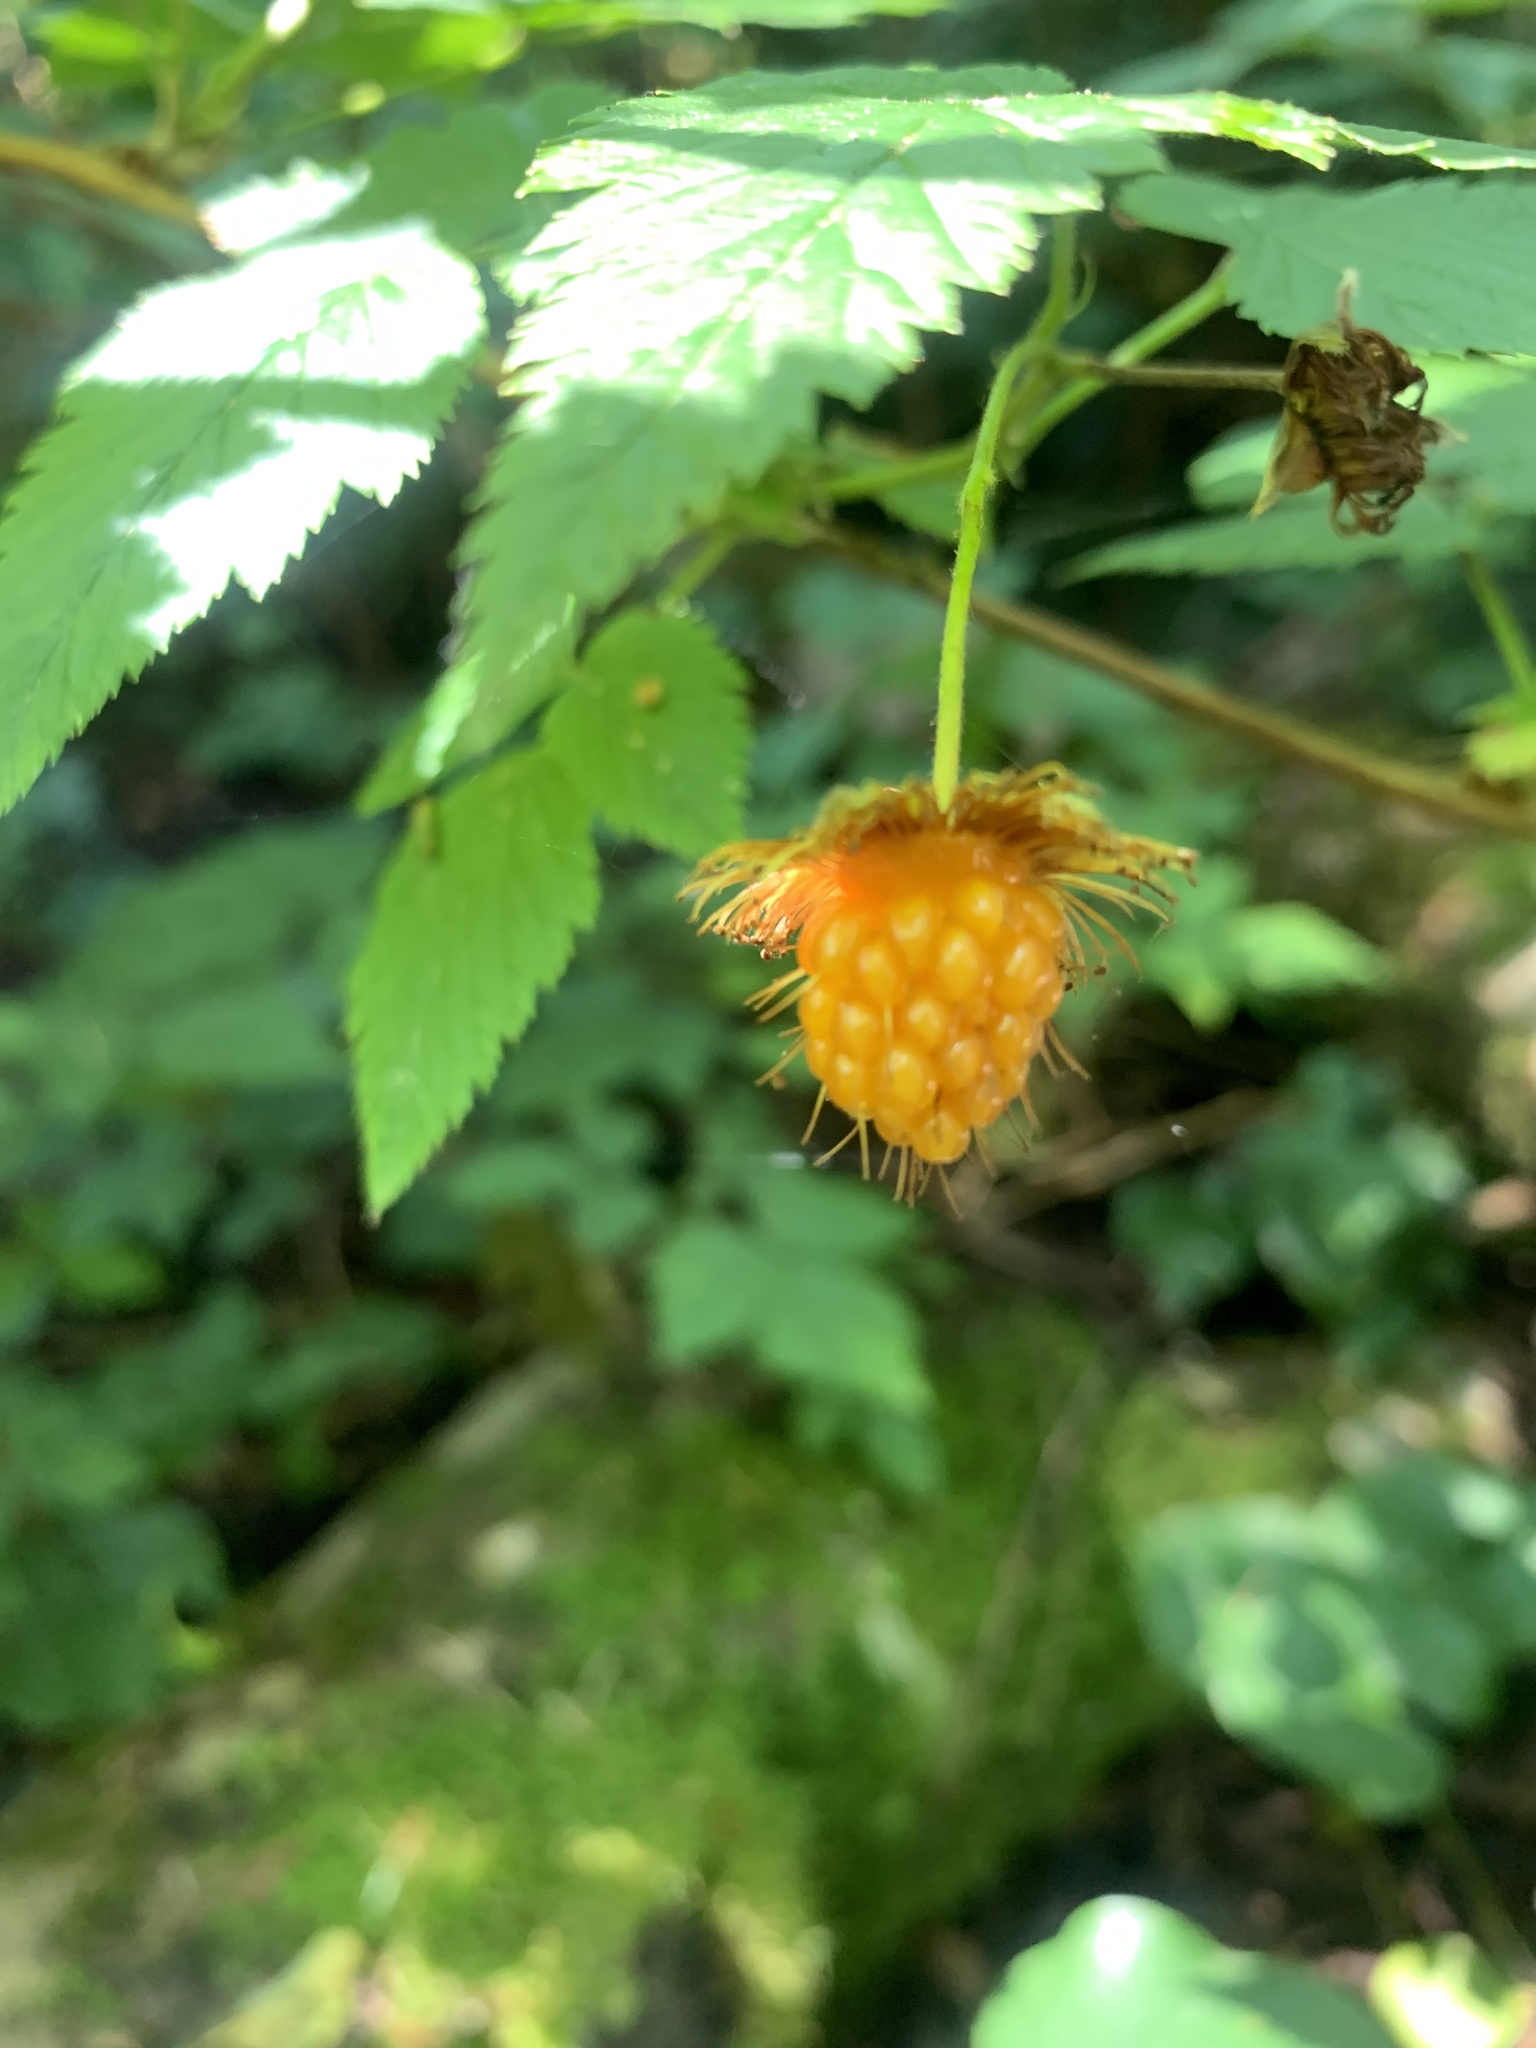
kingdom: Plantae
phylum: Tracheophyta
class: Magnoliopsida
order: Rosales
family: Rosaceae
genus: Rubus
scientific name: Rubus spectabilis
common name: Salmonberry
